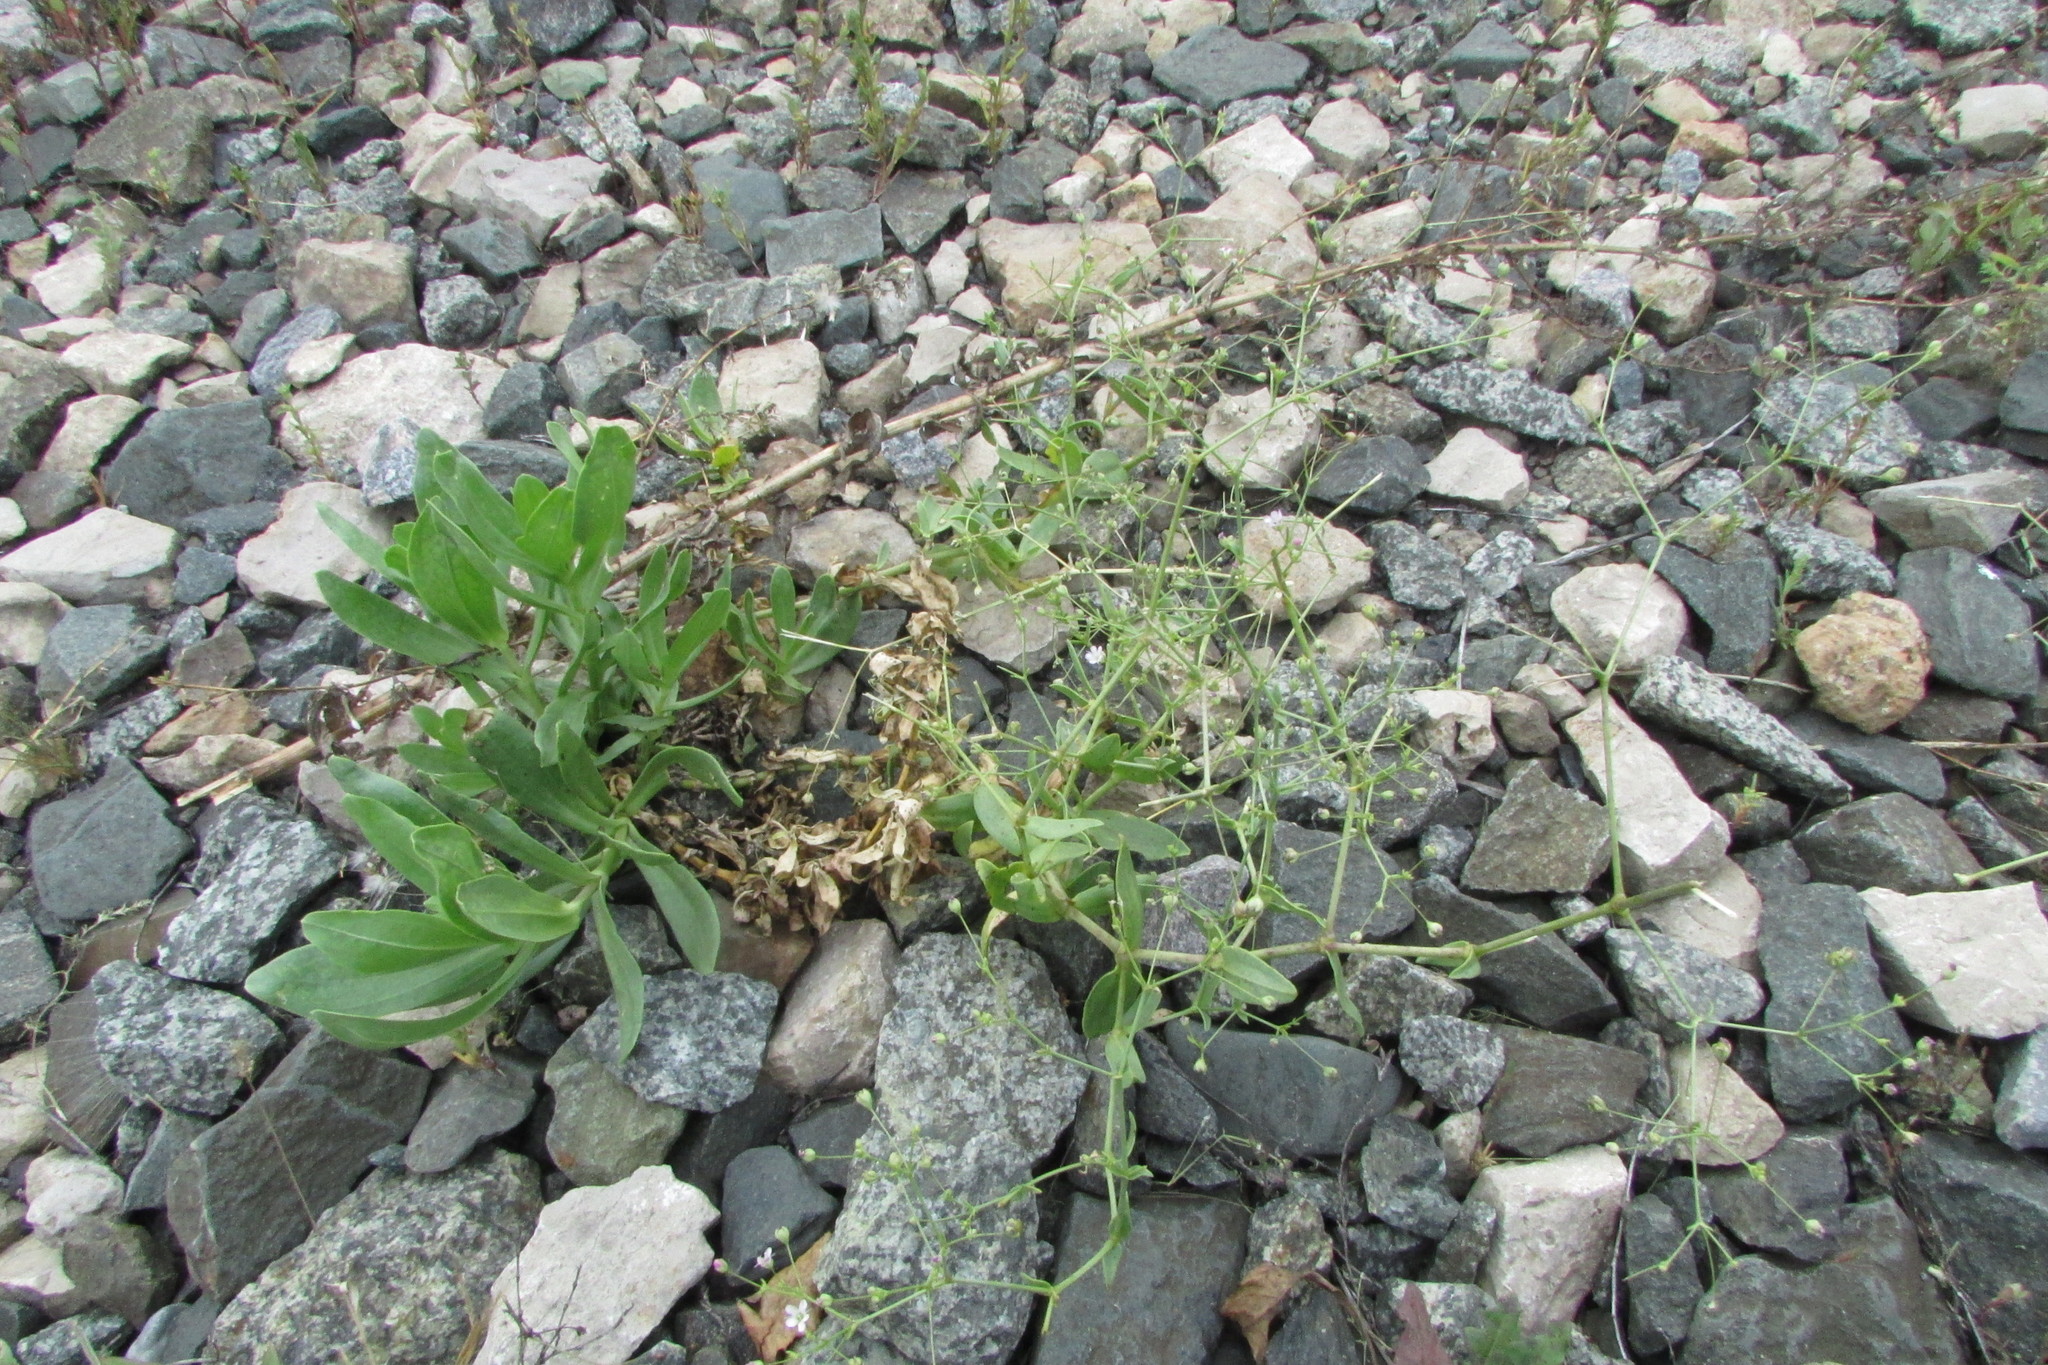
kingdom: Plantae
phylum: Tracheophyta
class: Magnoliopsida
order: Caryophyllales
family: Caryophyllaceae
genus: Gypsophila
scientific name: Gypsophila perfoliata
